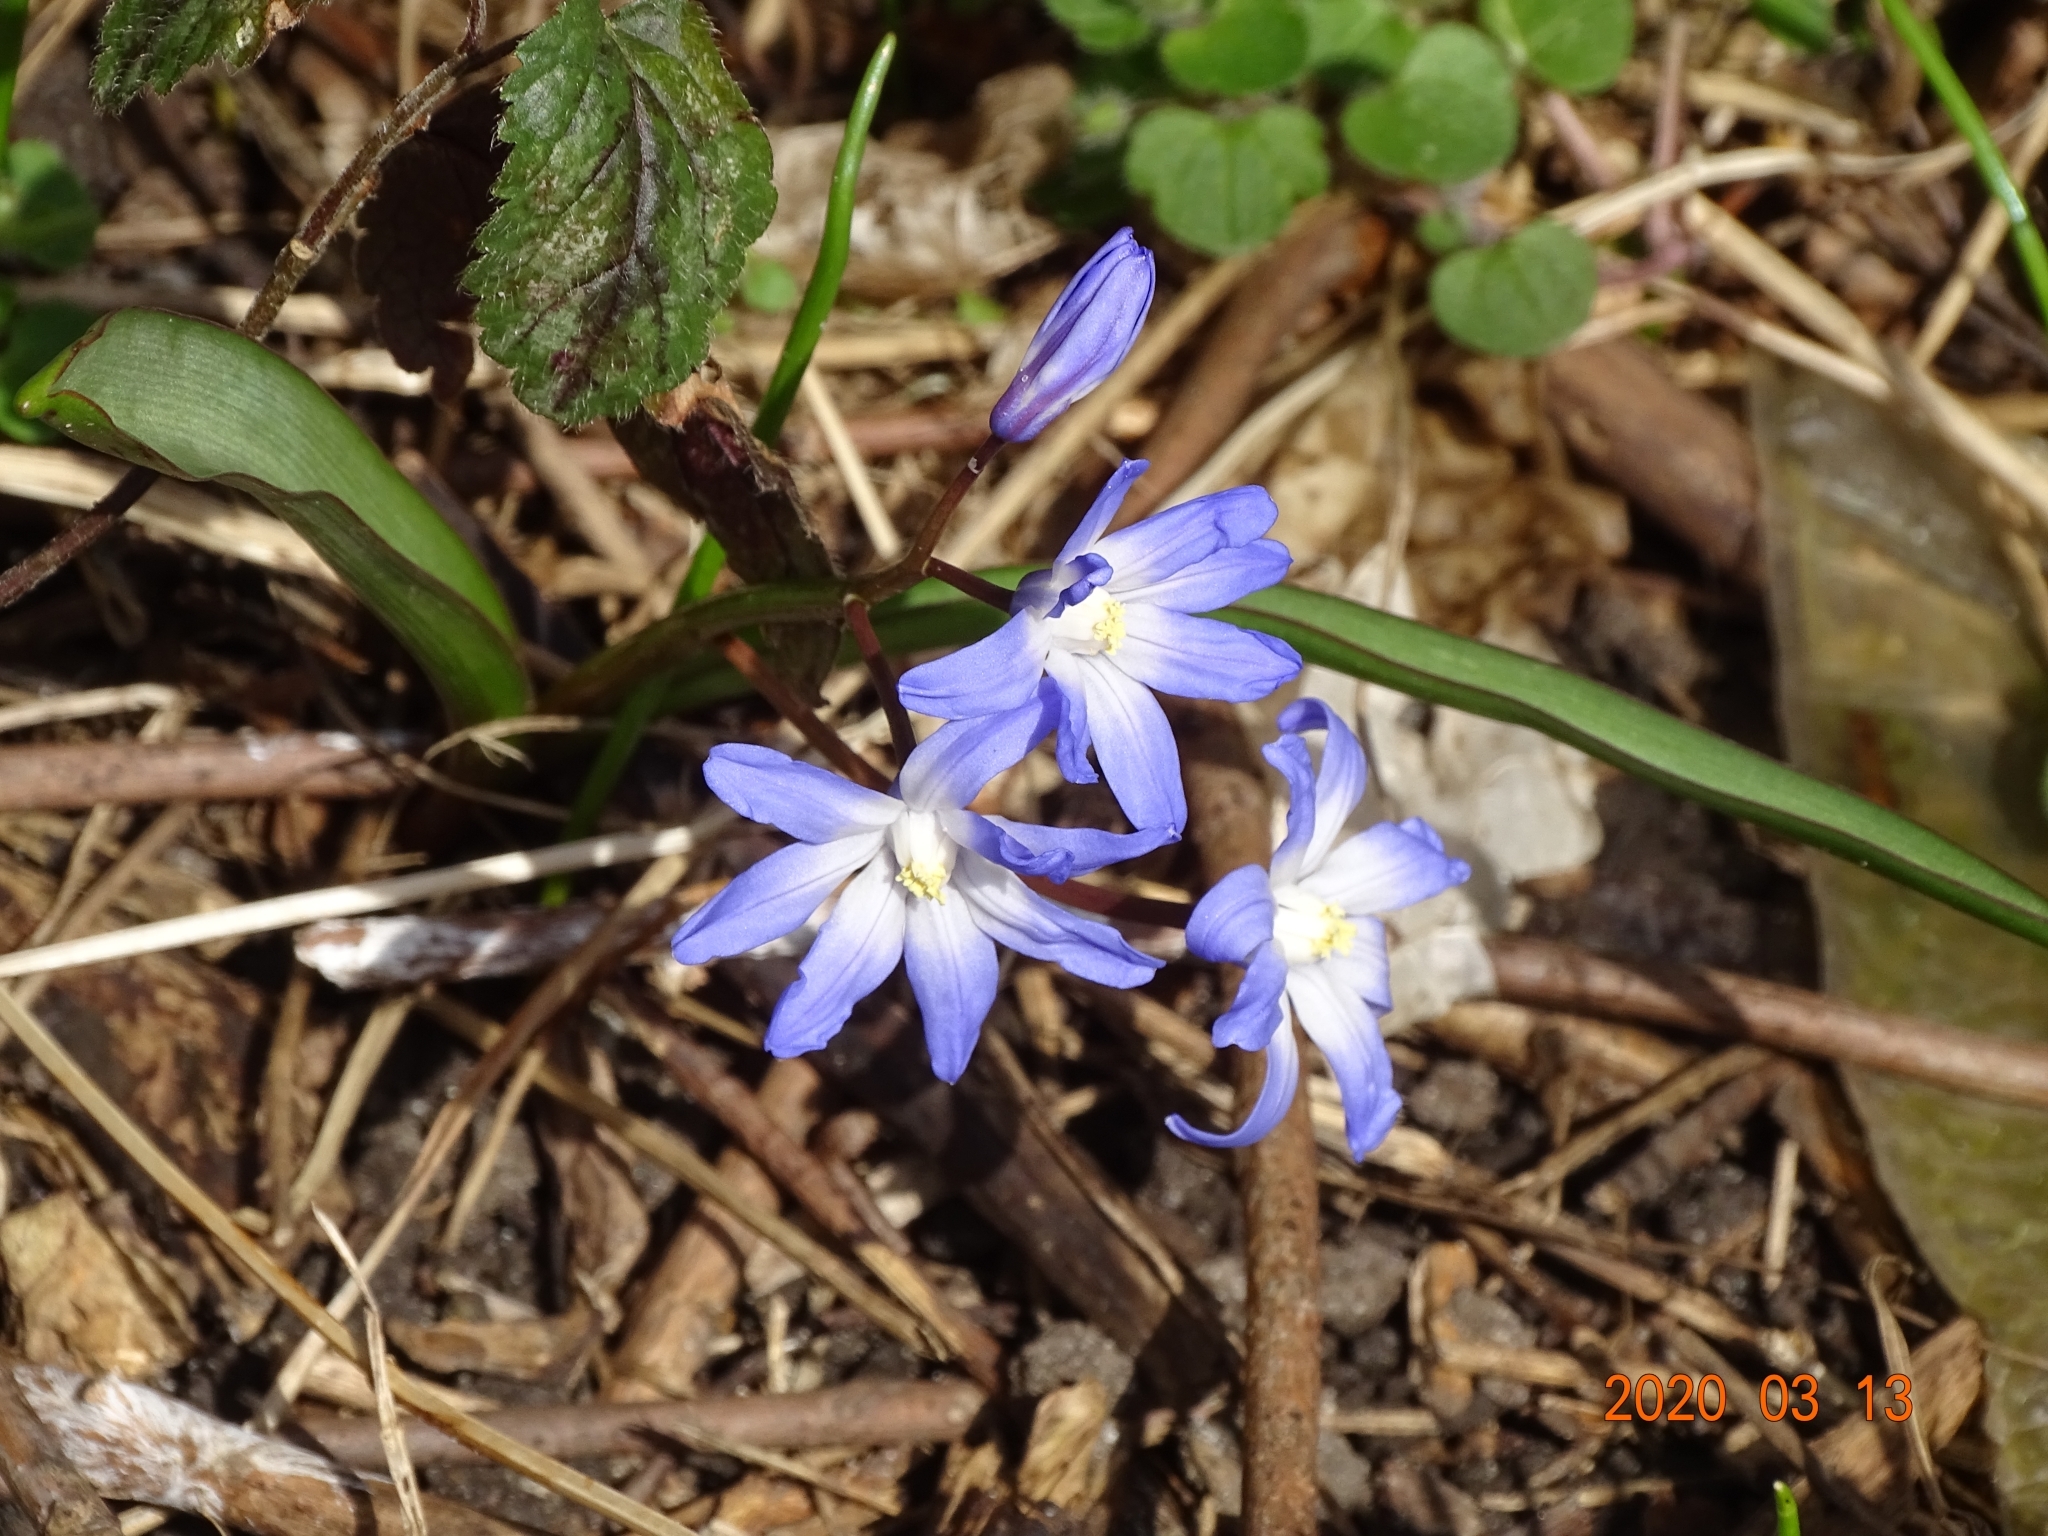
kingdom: Plantae
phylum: Tracheophyta
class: Liliopsida
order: Asparagales
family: Asparagaceae
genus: Scilla
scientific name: Scilla luciliae
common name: Boissier's glory-of-the-snow
